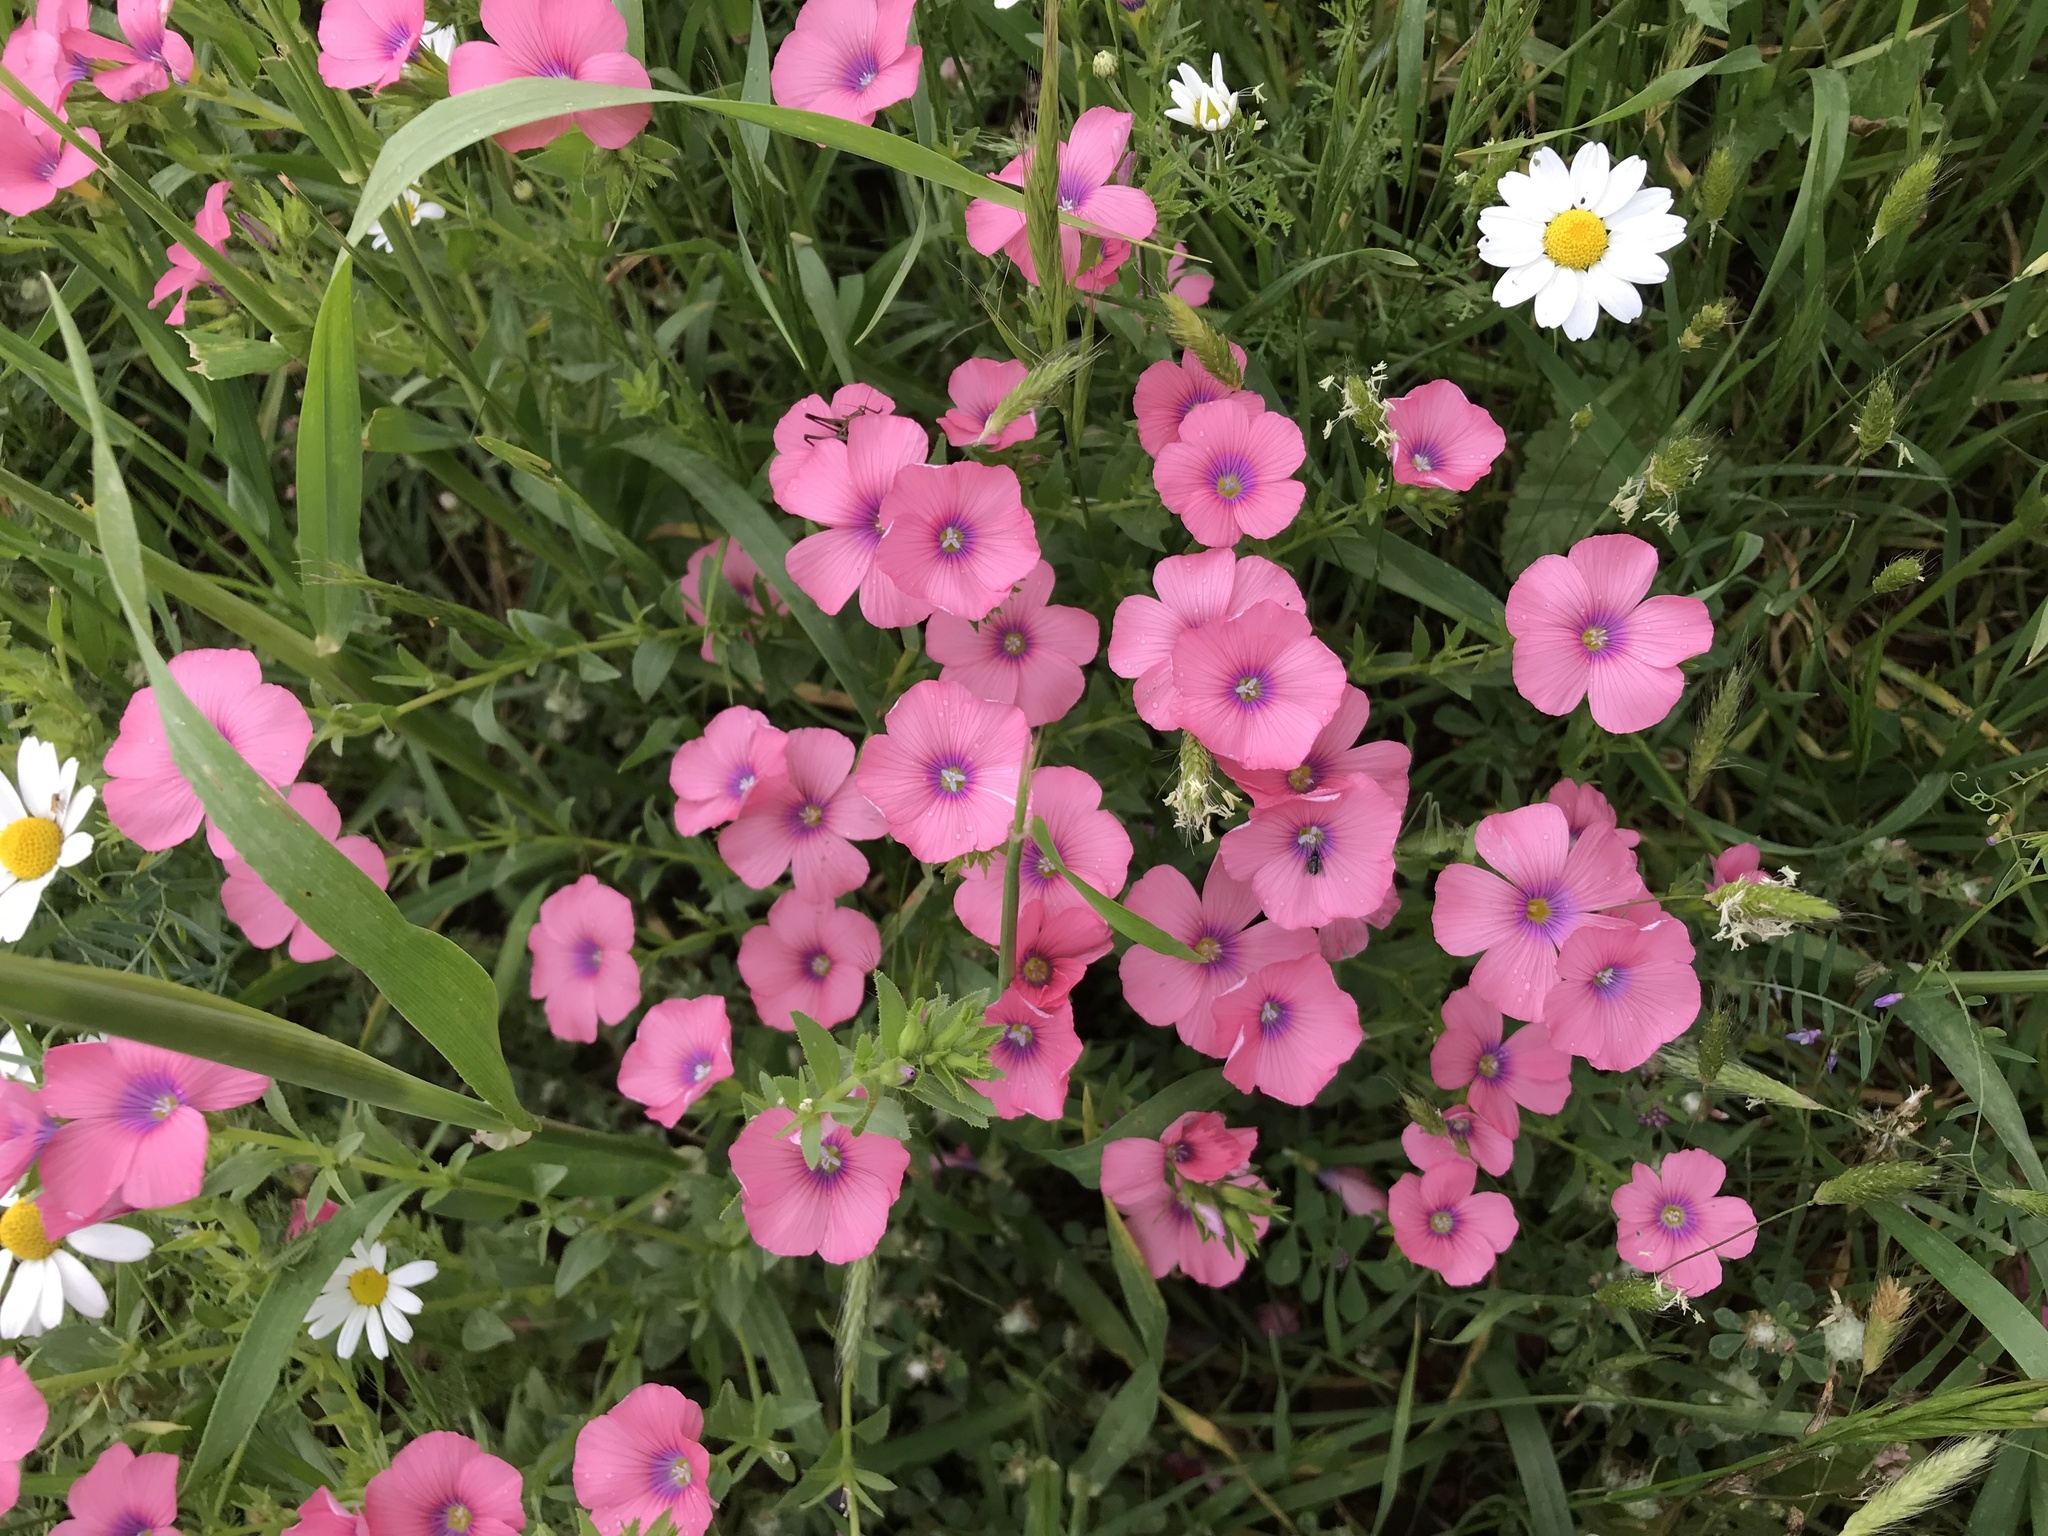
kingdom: Plantae
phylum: Tracheophyta
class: Magnoliopsida
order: Malpighiales
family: Linaceae
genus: Linum
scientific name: Linum pubescens
